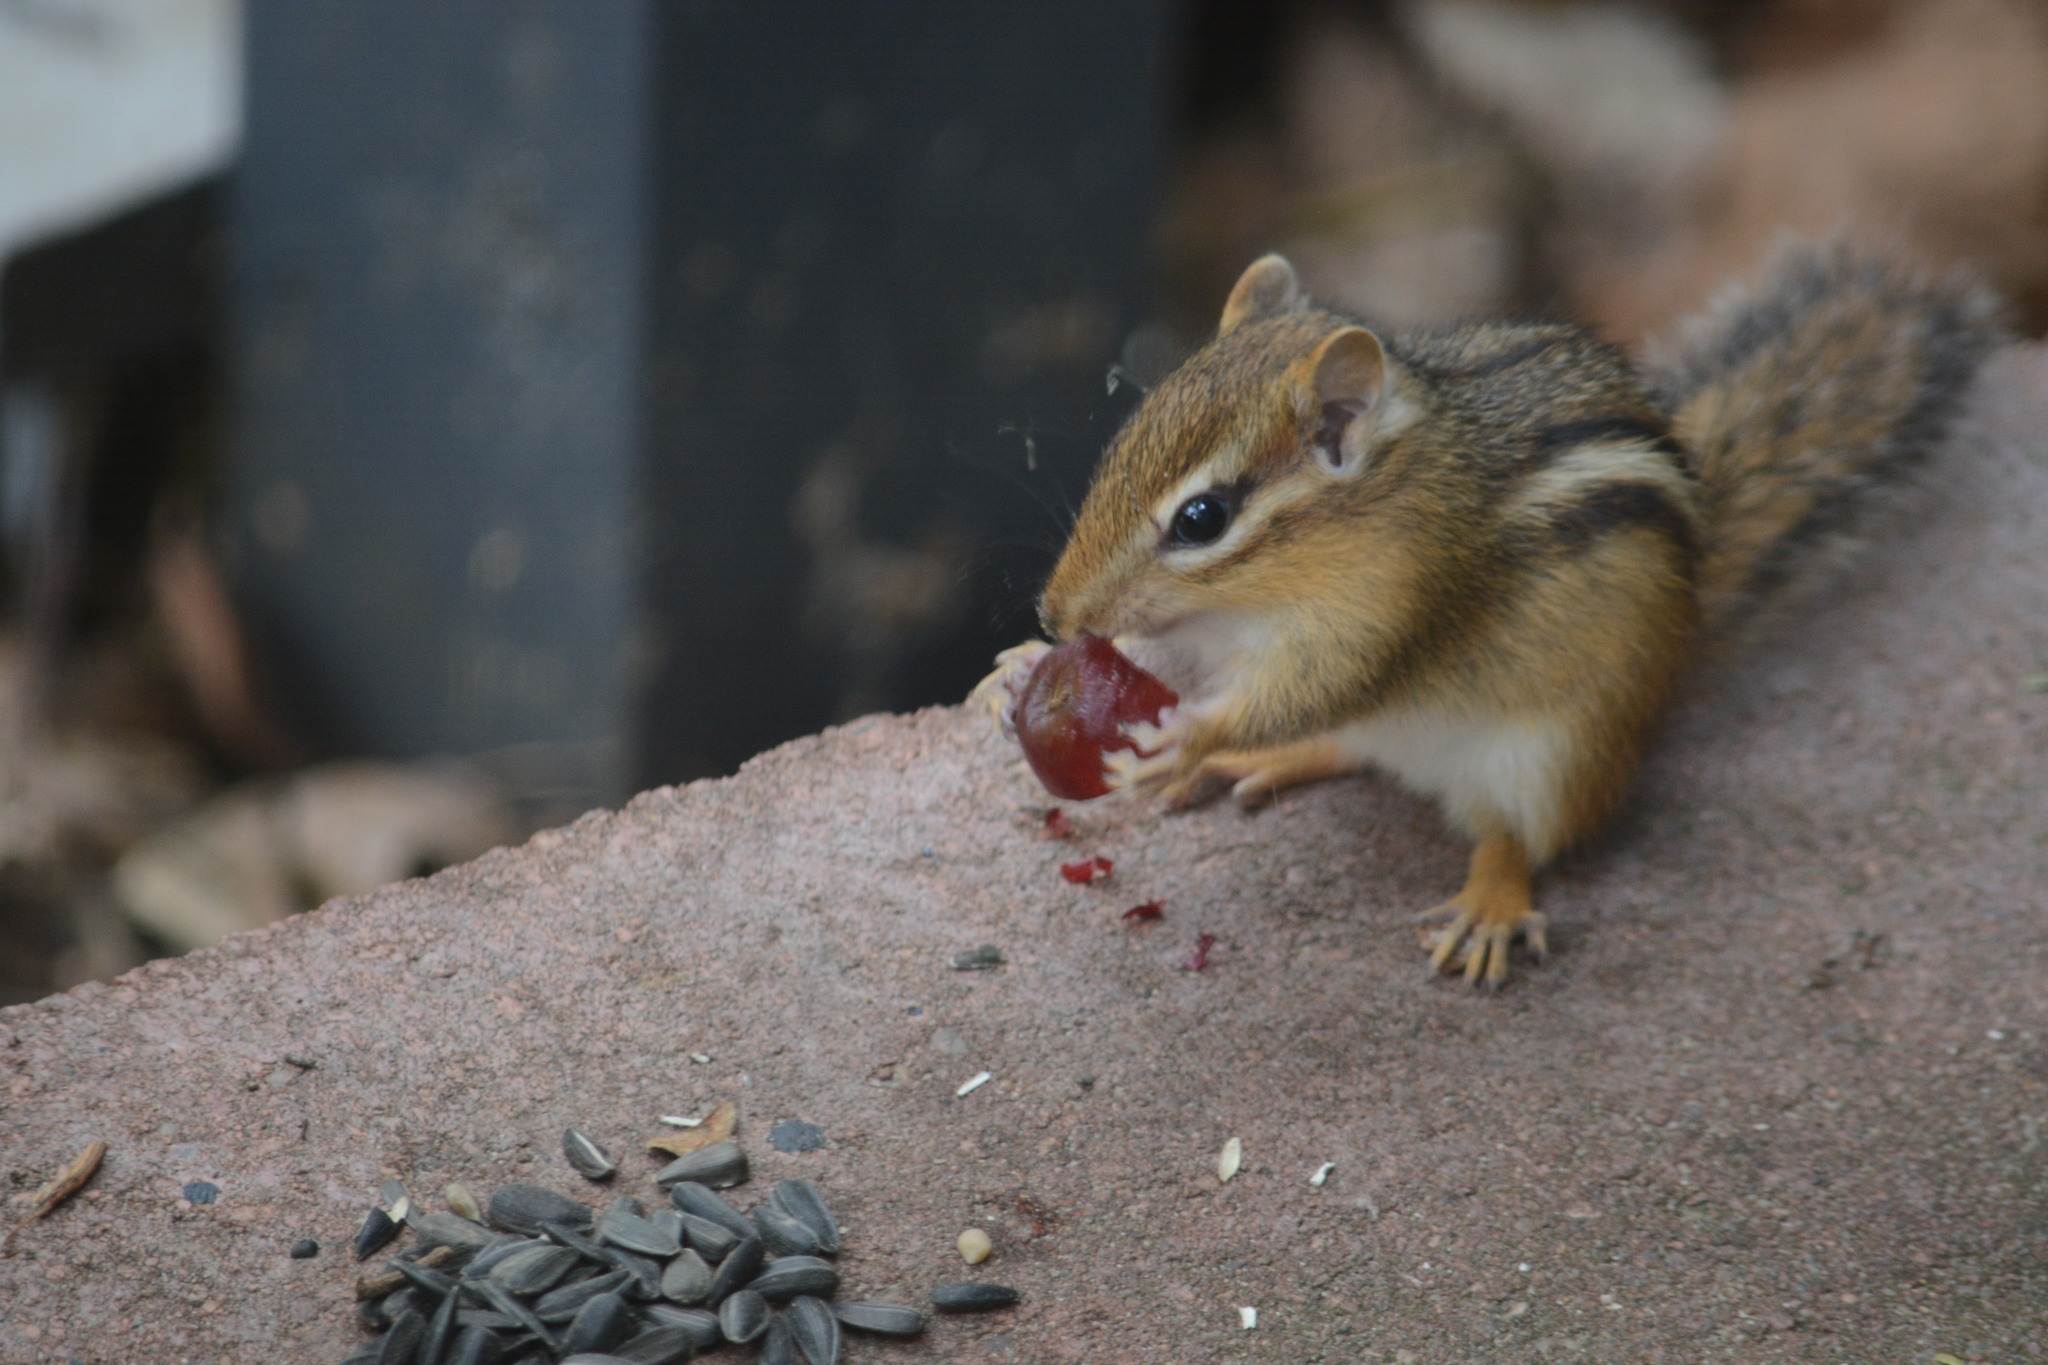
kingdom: Animalia
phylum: Chordata
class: Mammalia
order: Rodentia
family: Sciuridae
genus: Tamias
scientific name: Tamias striatus
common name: Eastern chipmunk
